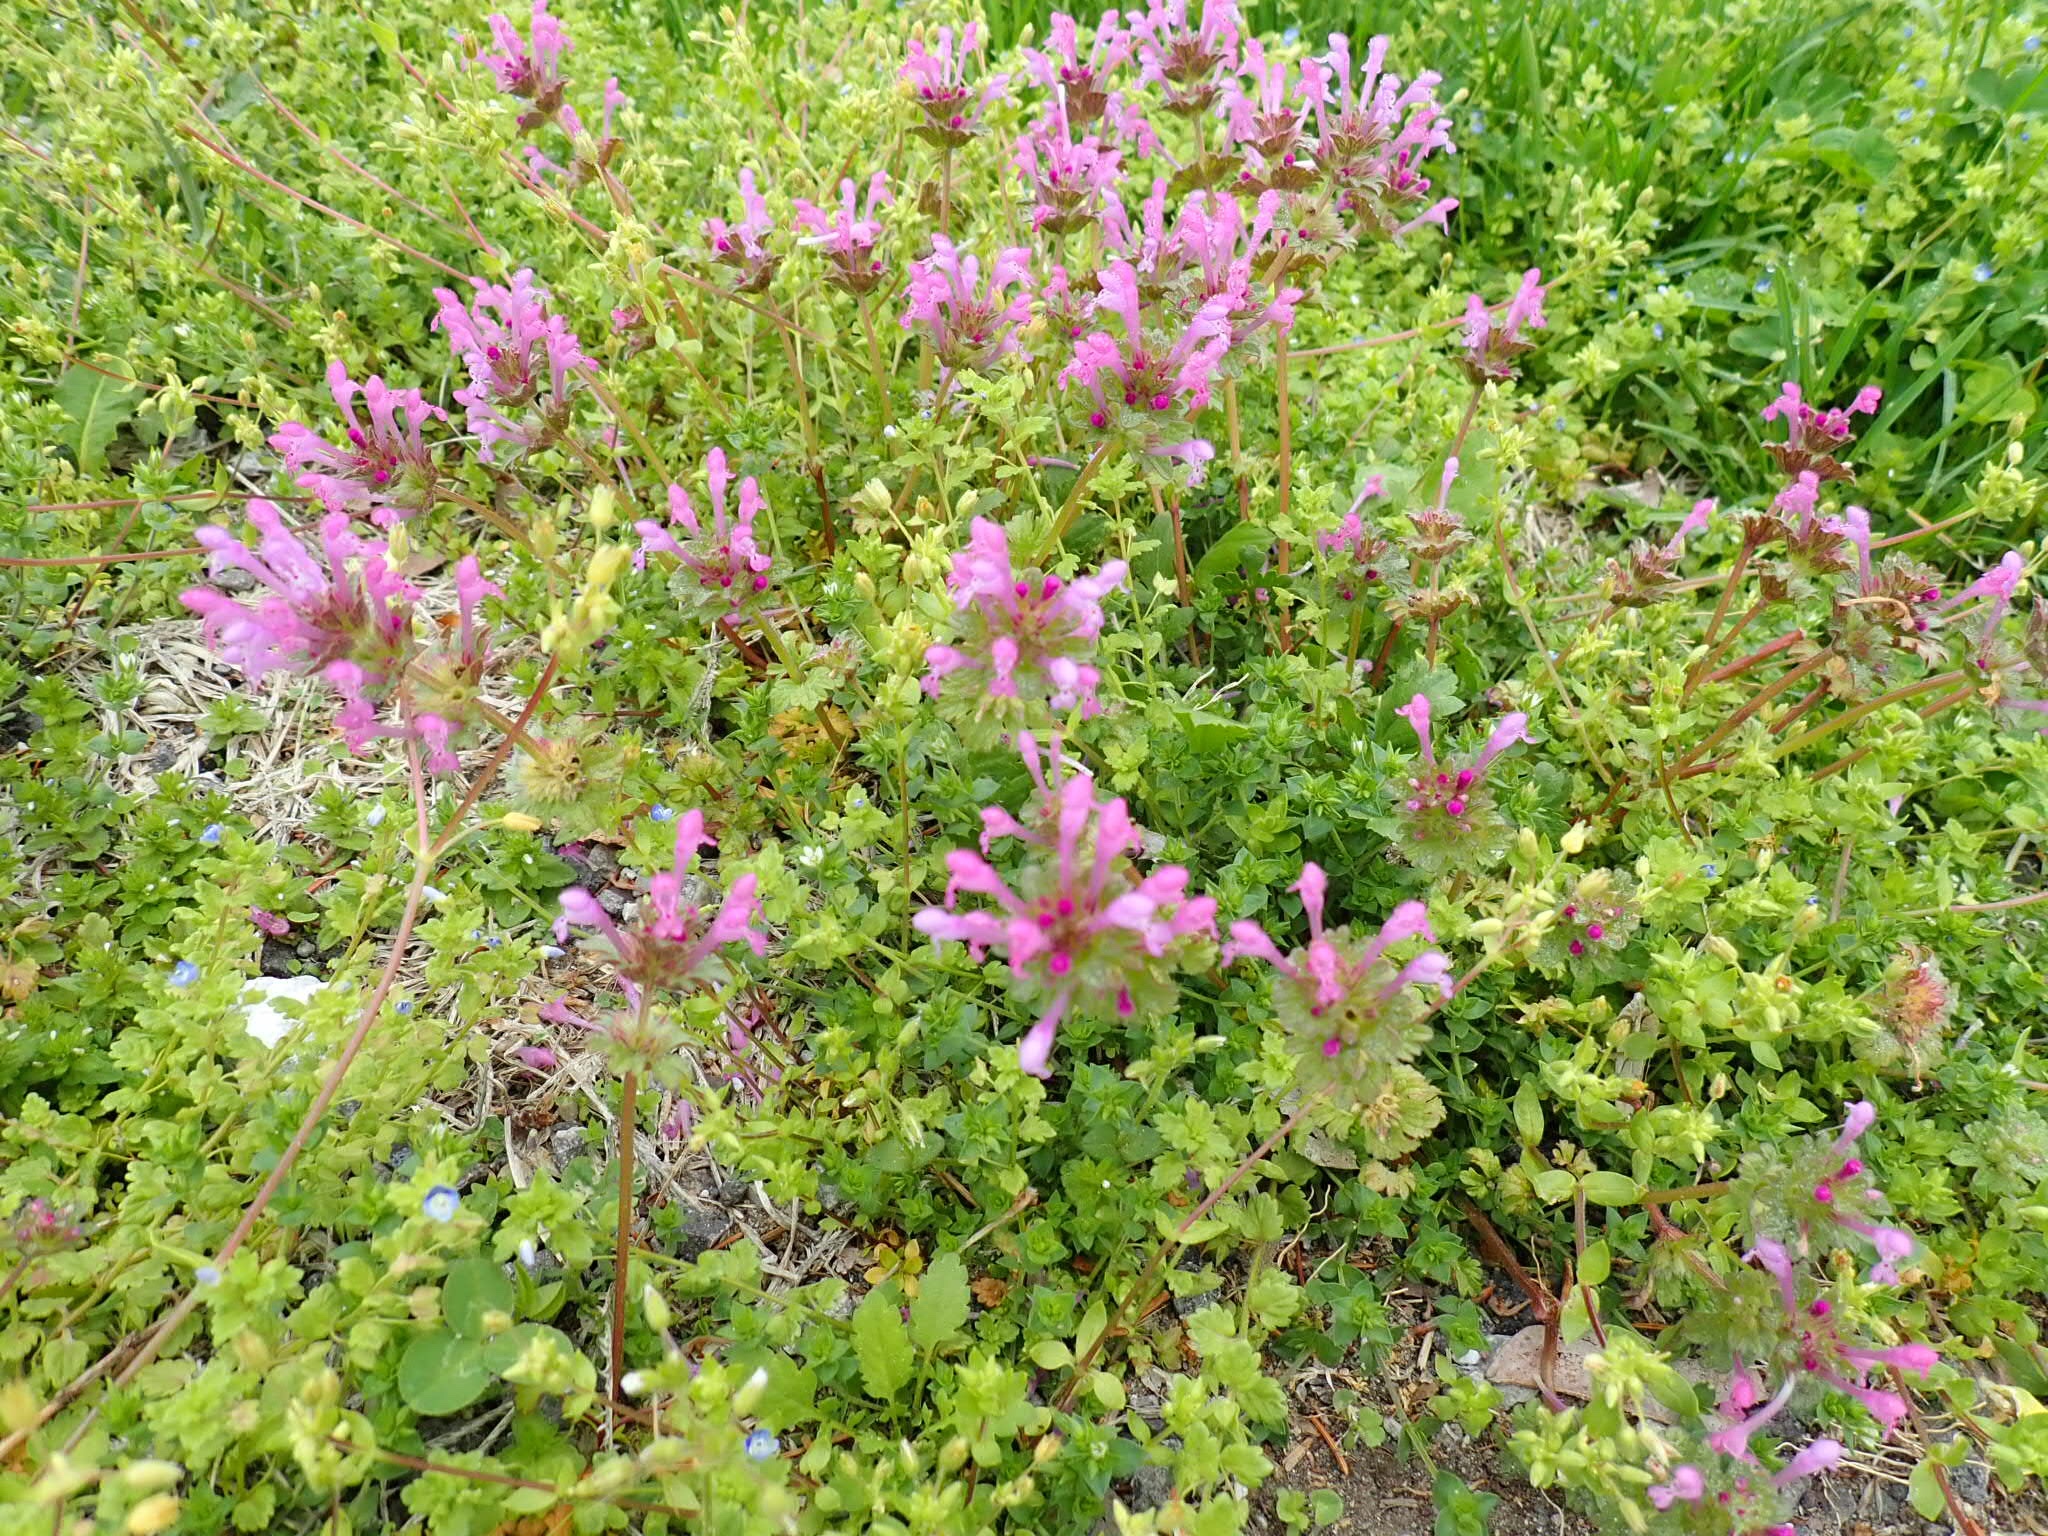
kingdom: Plantae
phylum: Tracheophyta
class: Magnoliopsida
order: Lamiales
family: Lamiaceae
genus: Lamium
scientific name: Lamium amplexicaule
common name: Henbit dead-nettle
